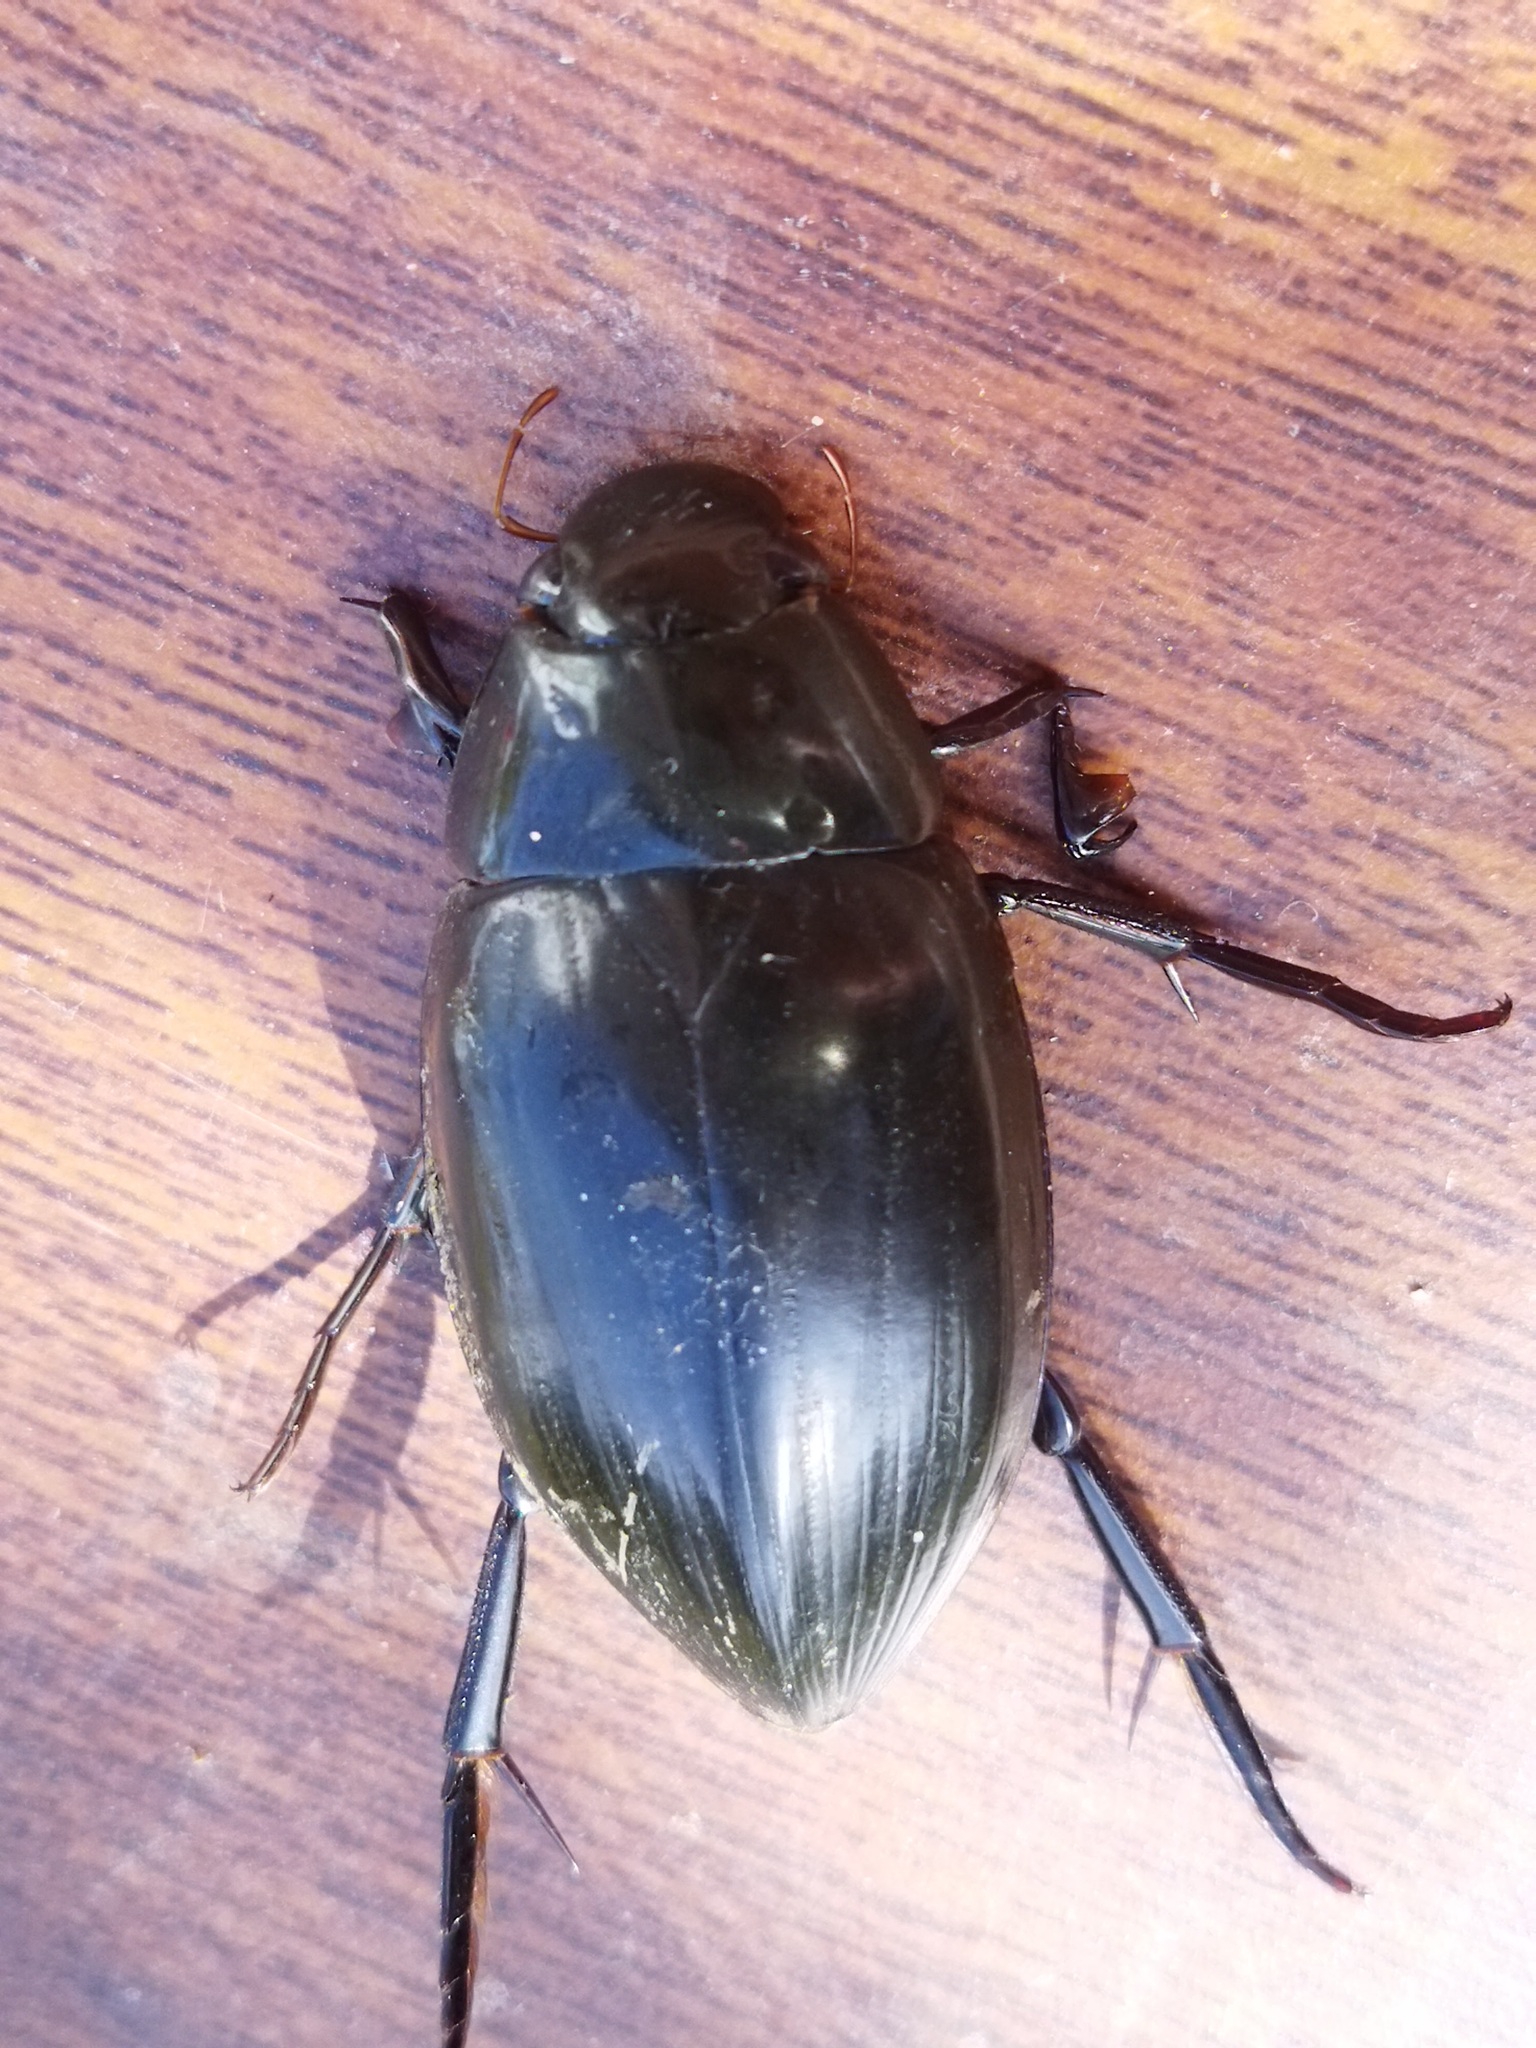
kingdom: Animalia
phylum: Arthropoda
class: Insecta
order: Coleoptera
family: Hydrophilidae
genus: Hydrophilus
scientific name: Hydrophilus piceus
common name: Great silver water beetle
